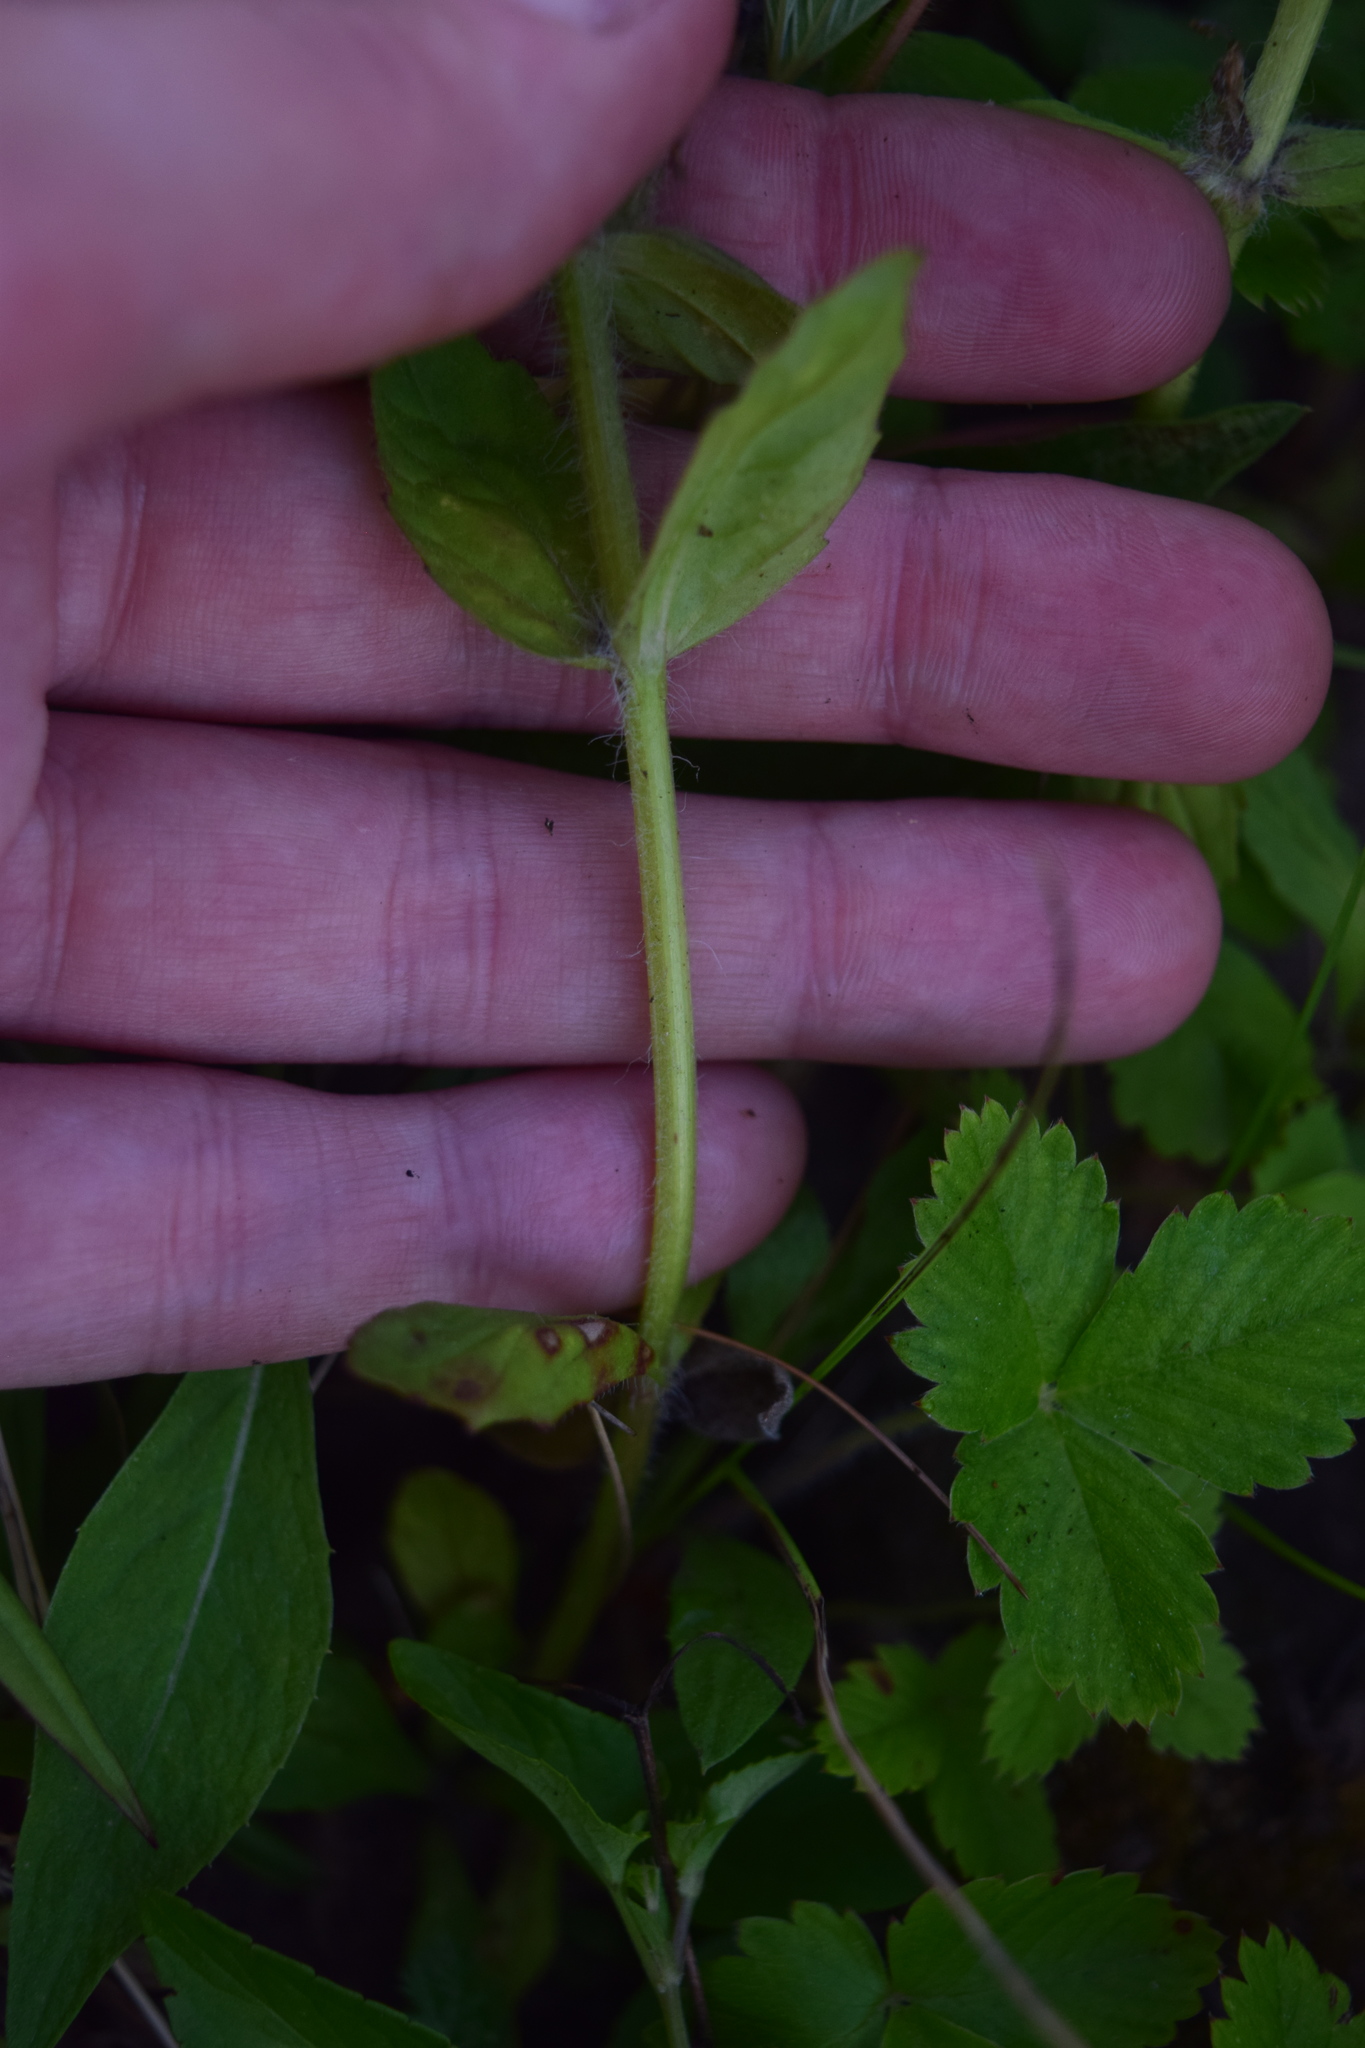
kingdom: Plantae
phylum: Tracheophyta
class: Magnoliopsida
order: Lamiales
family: Lamiaceae
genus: Ajuga
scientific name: Ajuga genevensis
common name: Blue bugle
